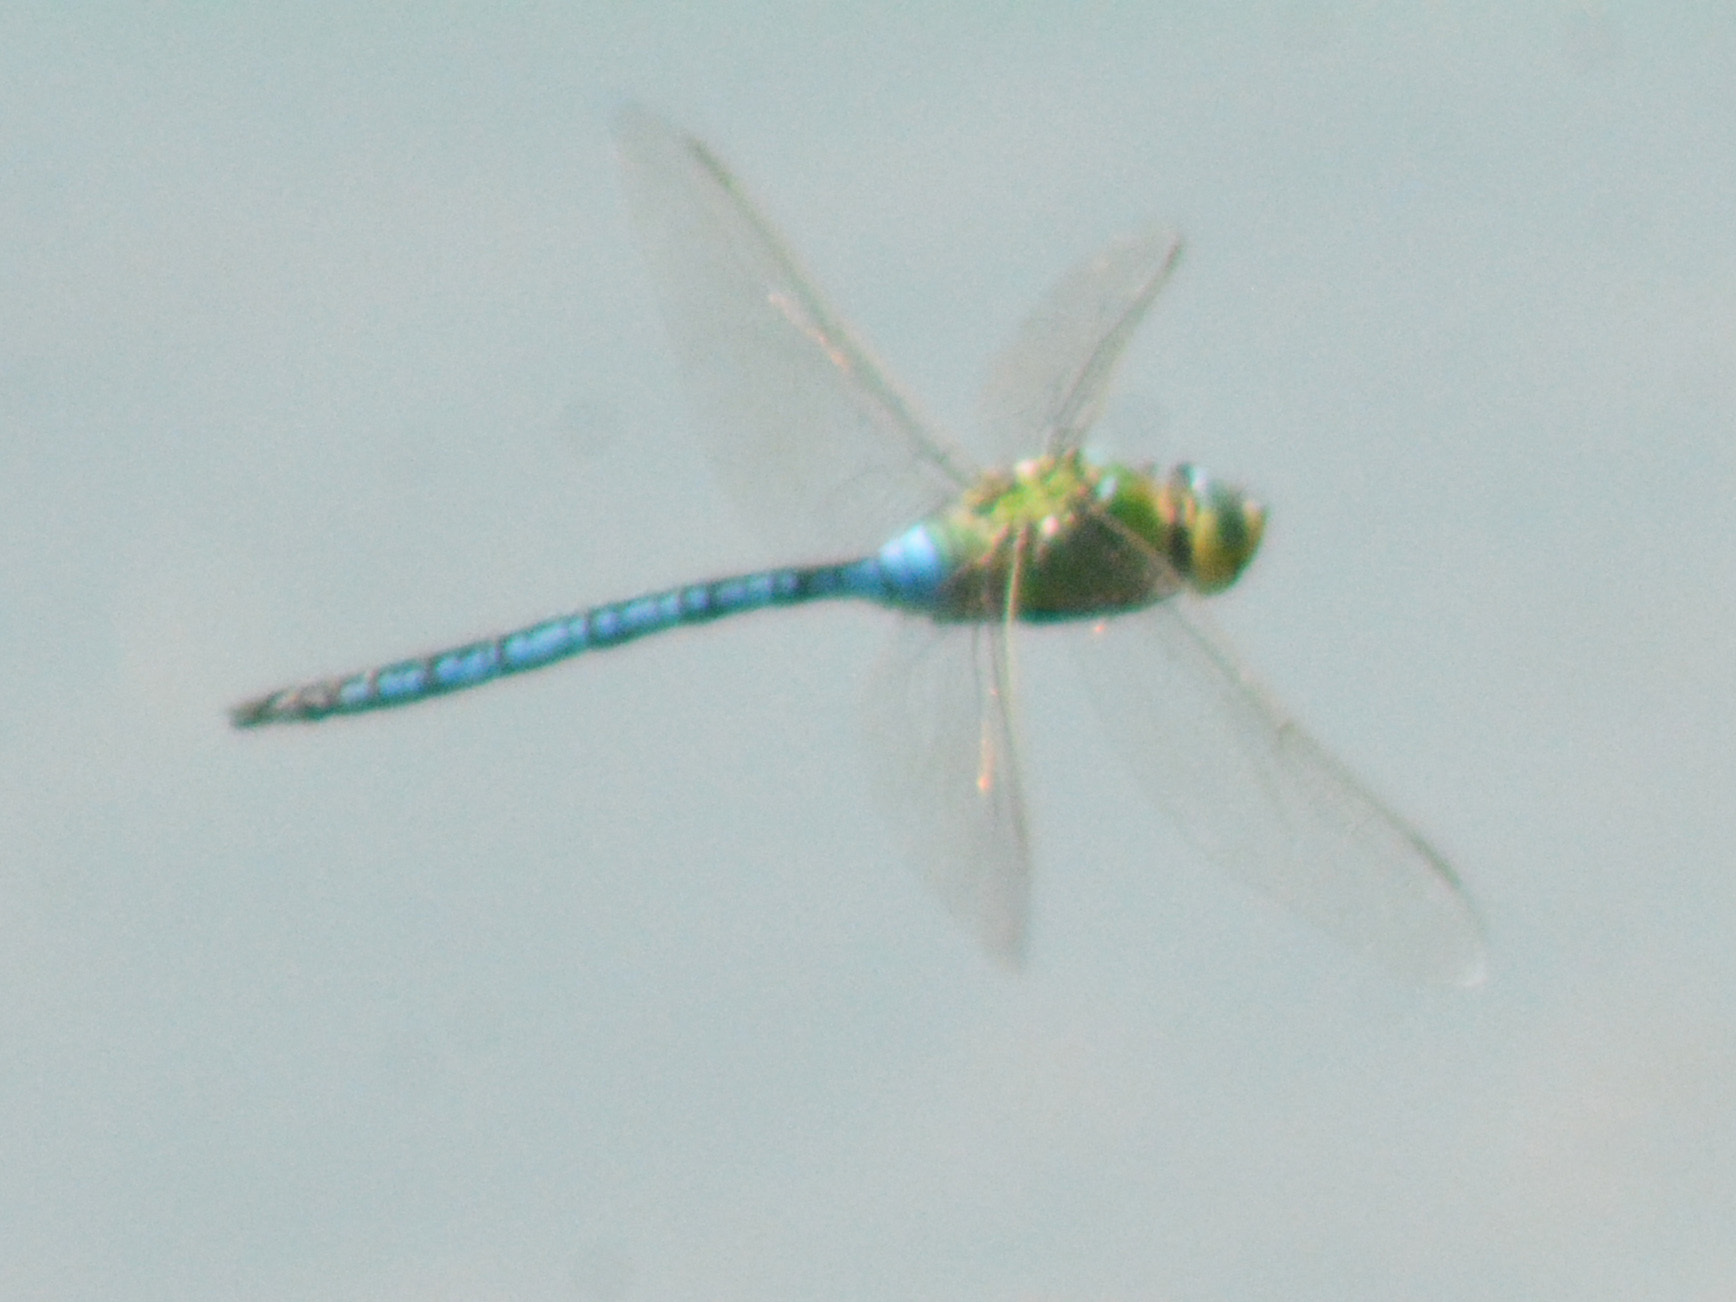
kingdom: Animalia
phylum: Arthropoda
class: Insecta
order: Odonata
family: Aeshnidae
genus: Anax
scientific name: Anax imperator
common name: Emperor dragonfly
